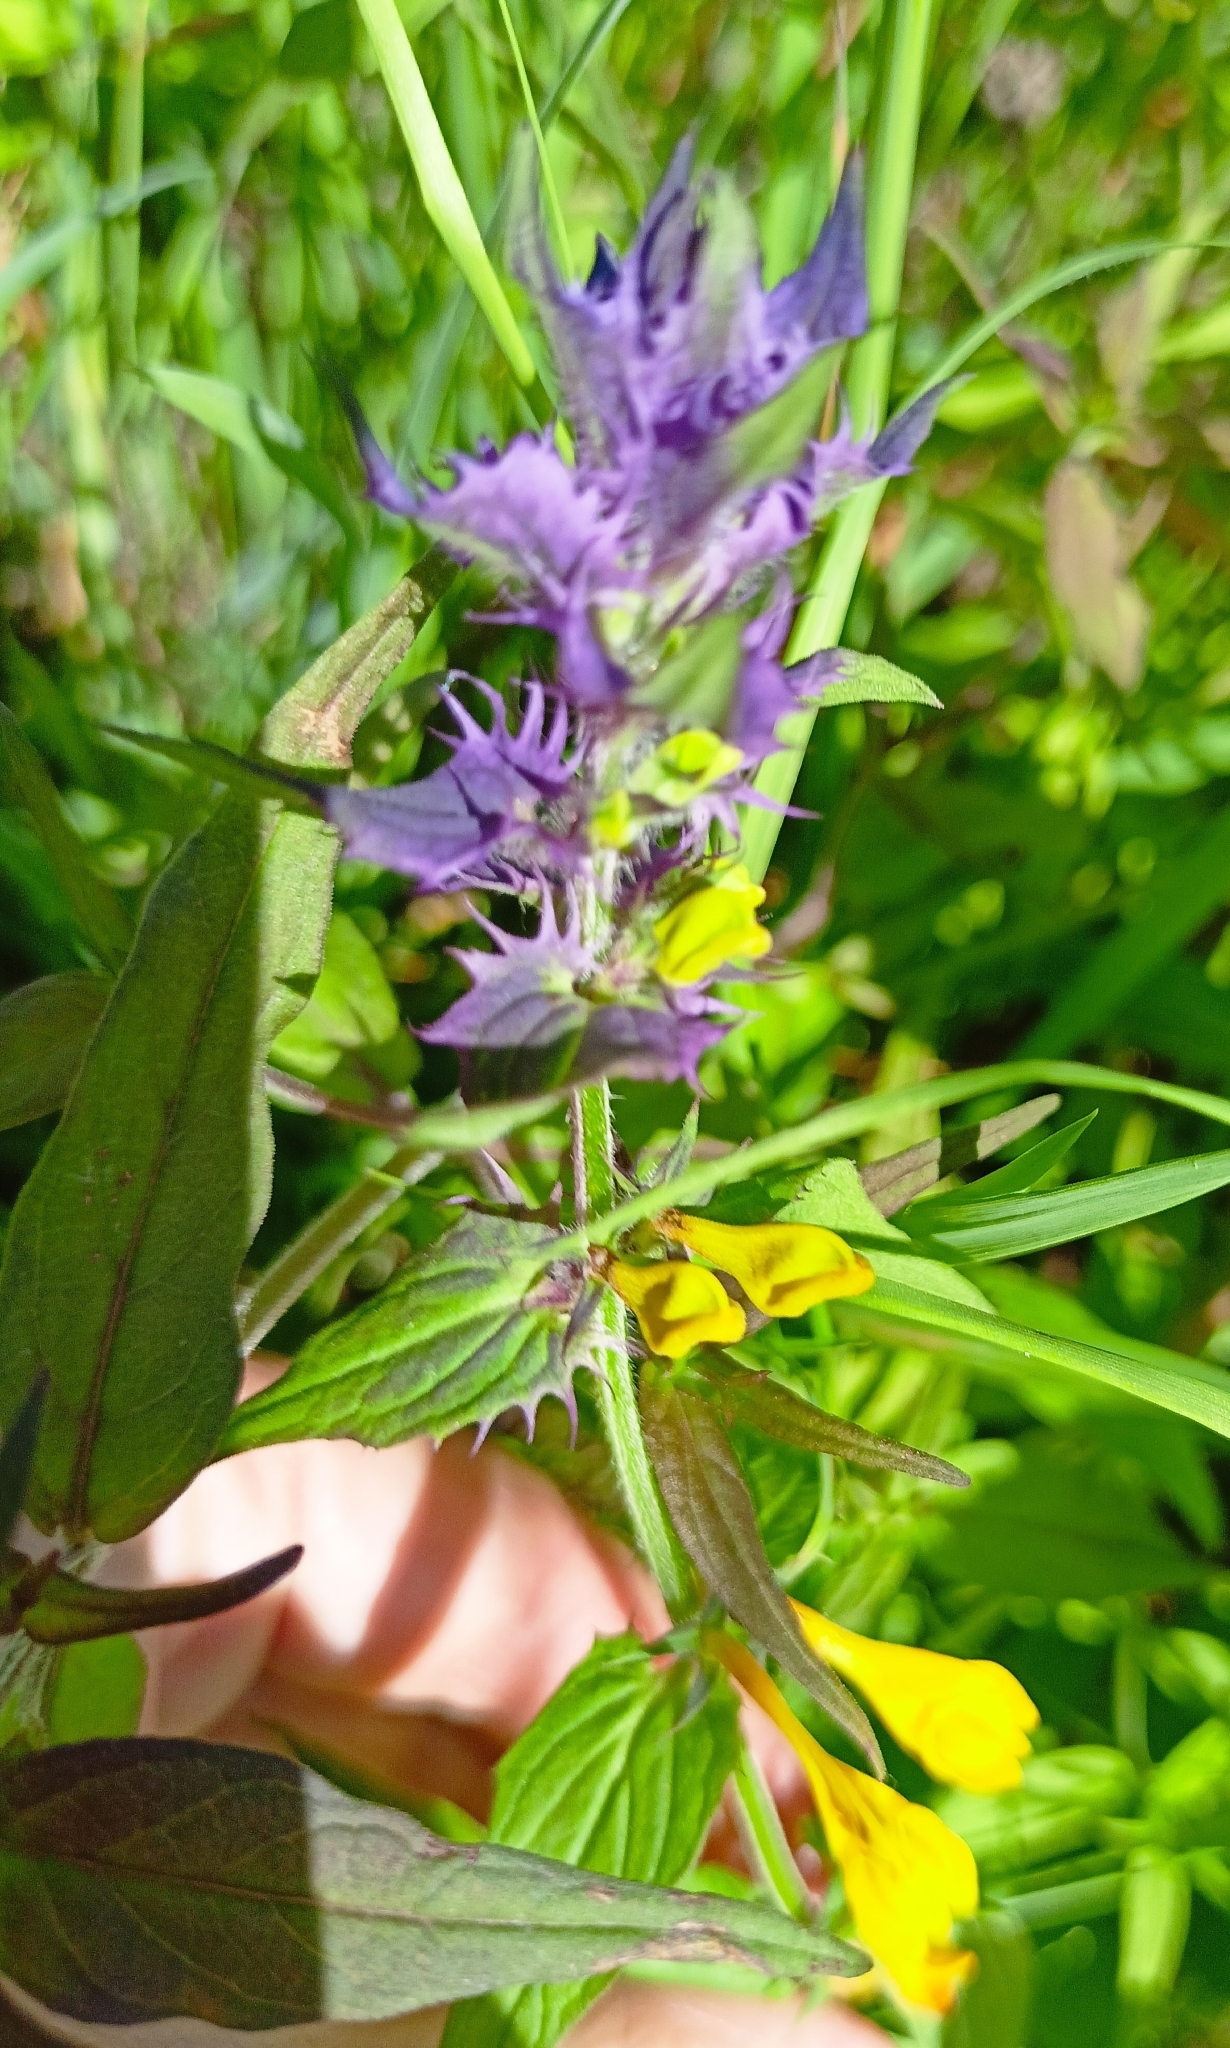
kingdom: Plantae
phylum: Tracheophyta
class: Magnoliopsida
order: Lamiales
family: Orobanchaceae
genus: Melampyrum
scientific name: Melampyrum nemorosum
